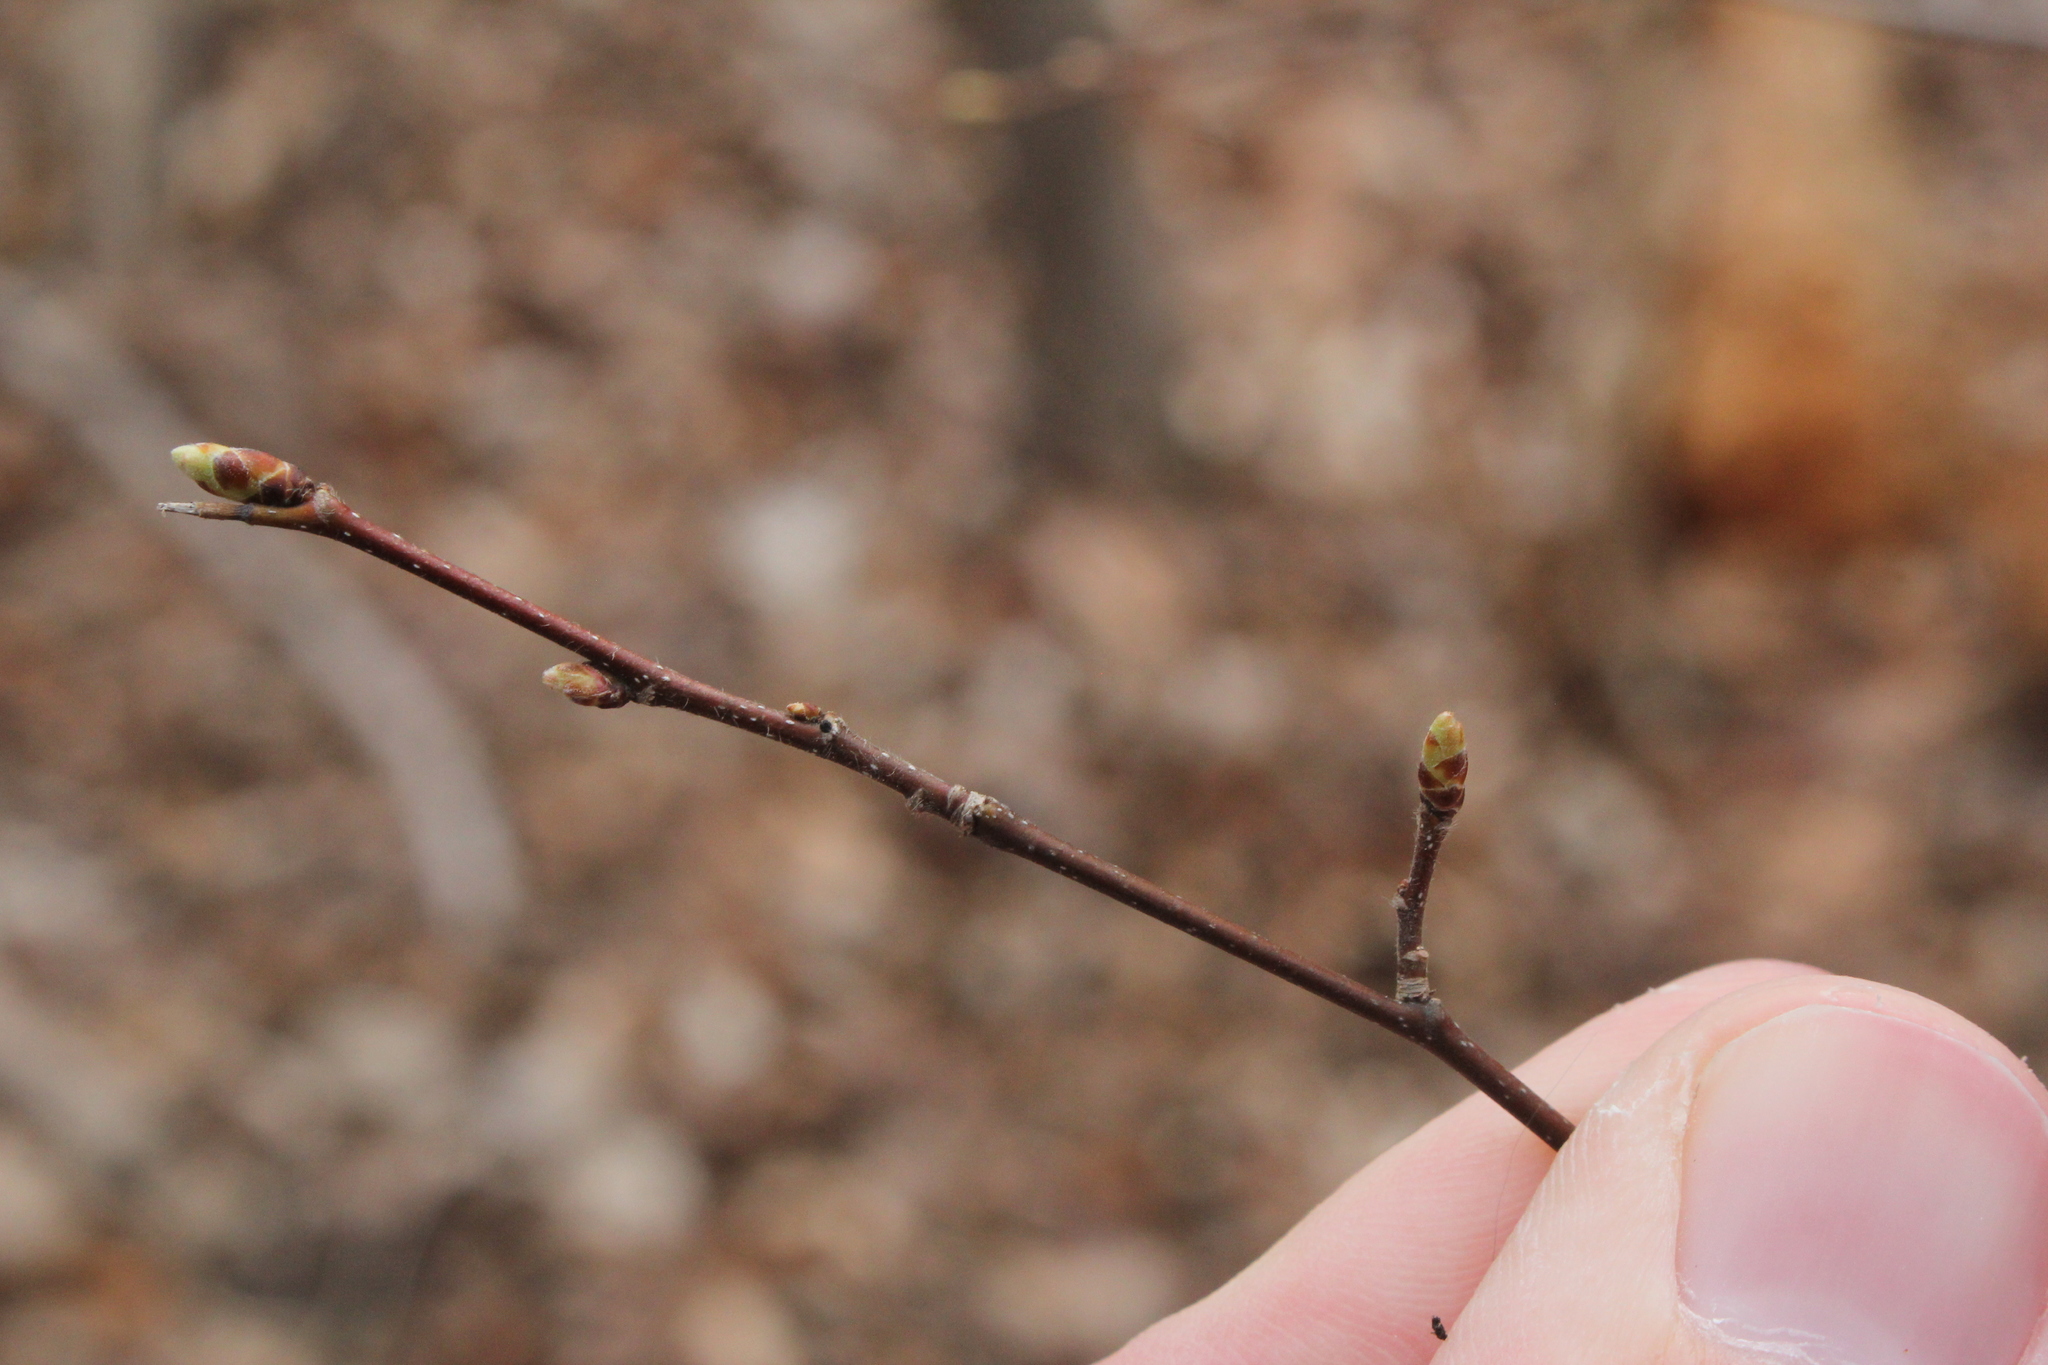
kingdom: Plantae
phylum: Tracheophyta
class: Magnoliopsida
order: Fagales
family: Betulaceae
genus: Carpinus
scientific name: Carpinus caroliniana
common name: American hornbeam
